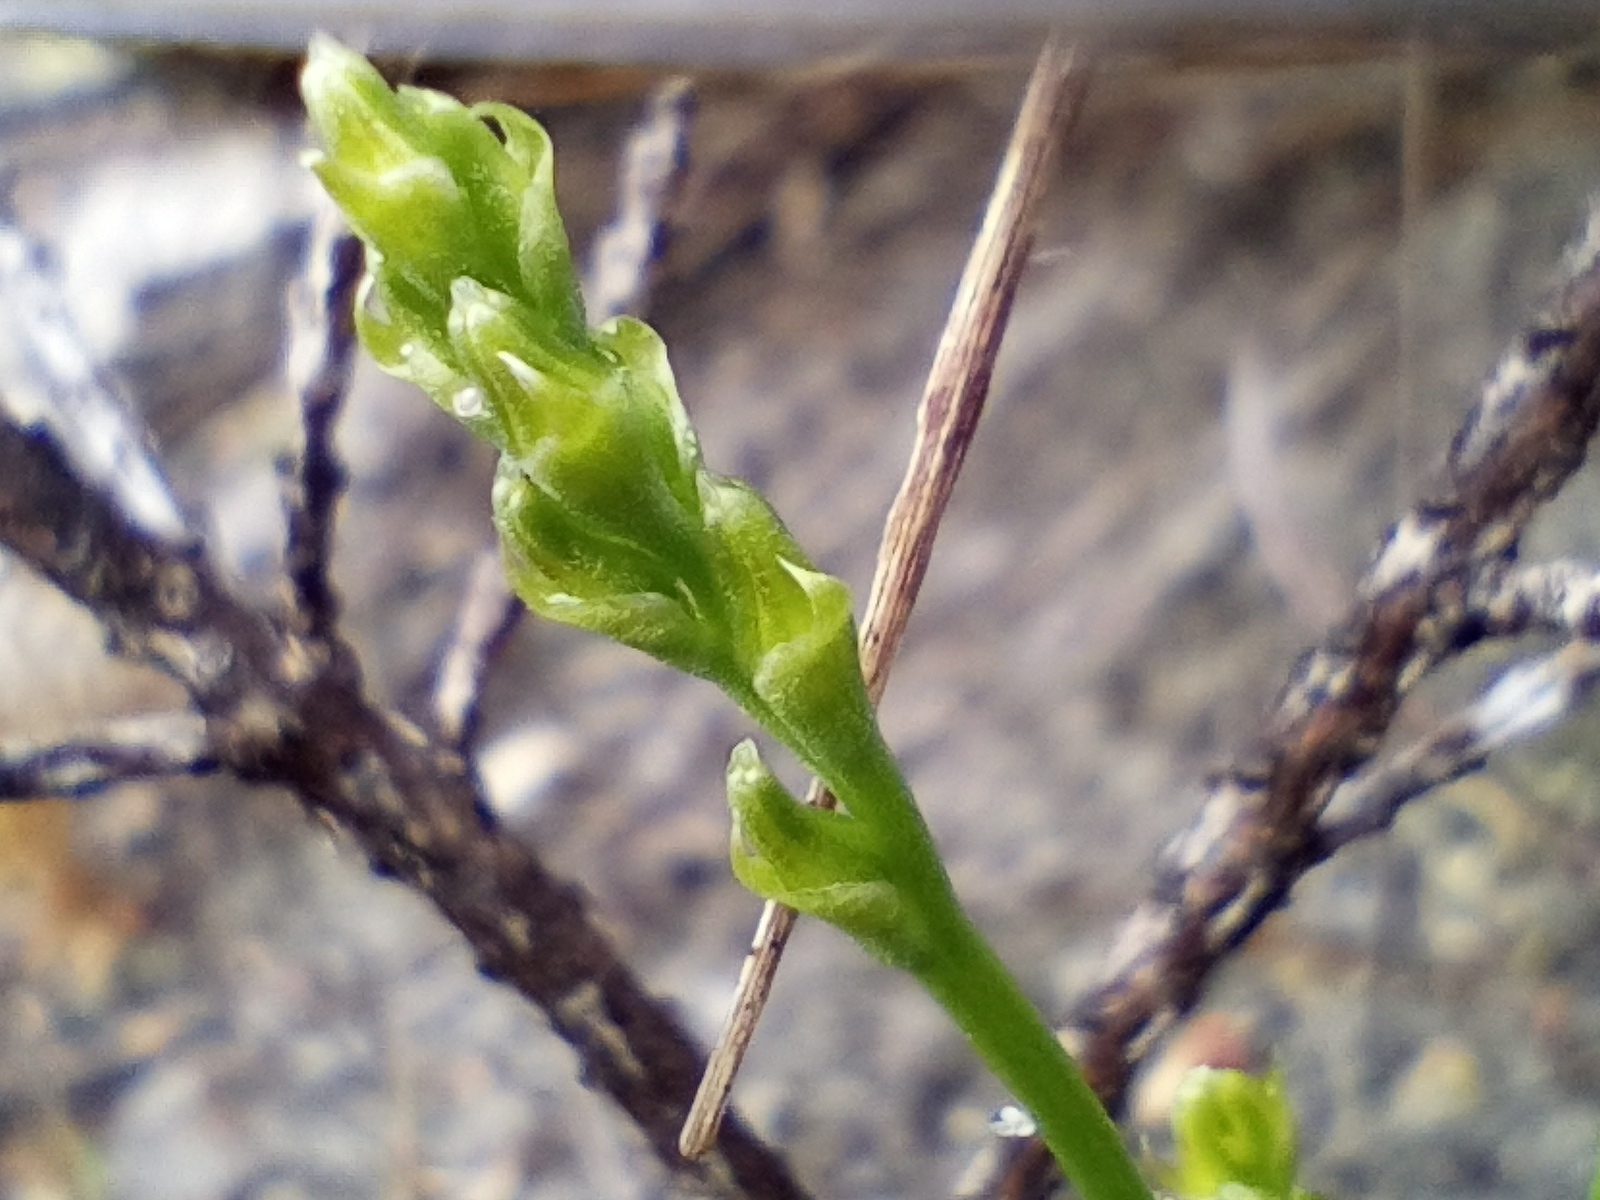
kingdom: Plantae
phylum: Tracheophyta
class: Liliopsida
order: Asparagales
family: Orchidaceae
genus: Prasophyllum
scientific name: Prasophyllum parvifolium
